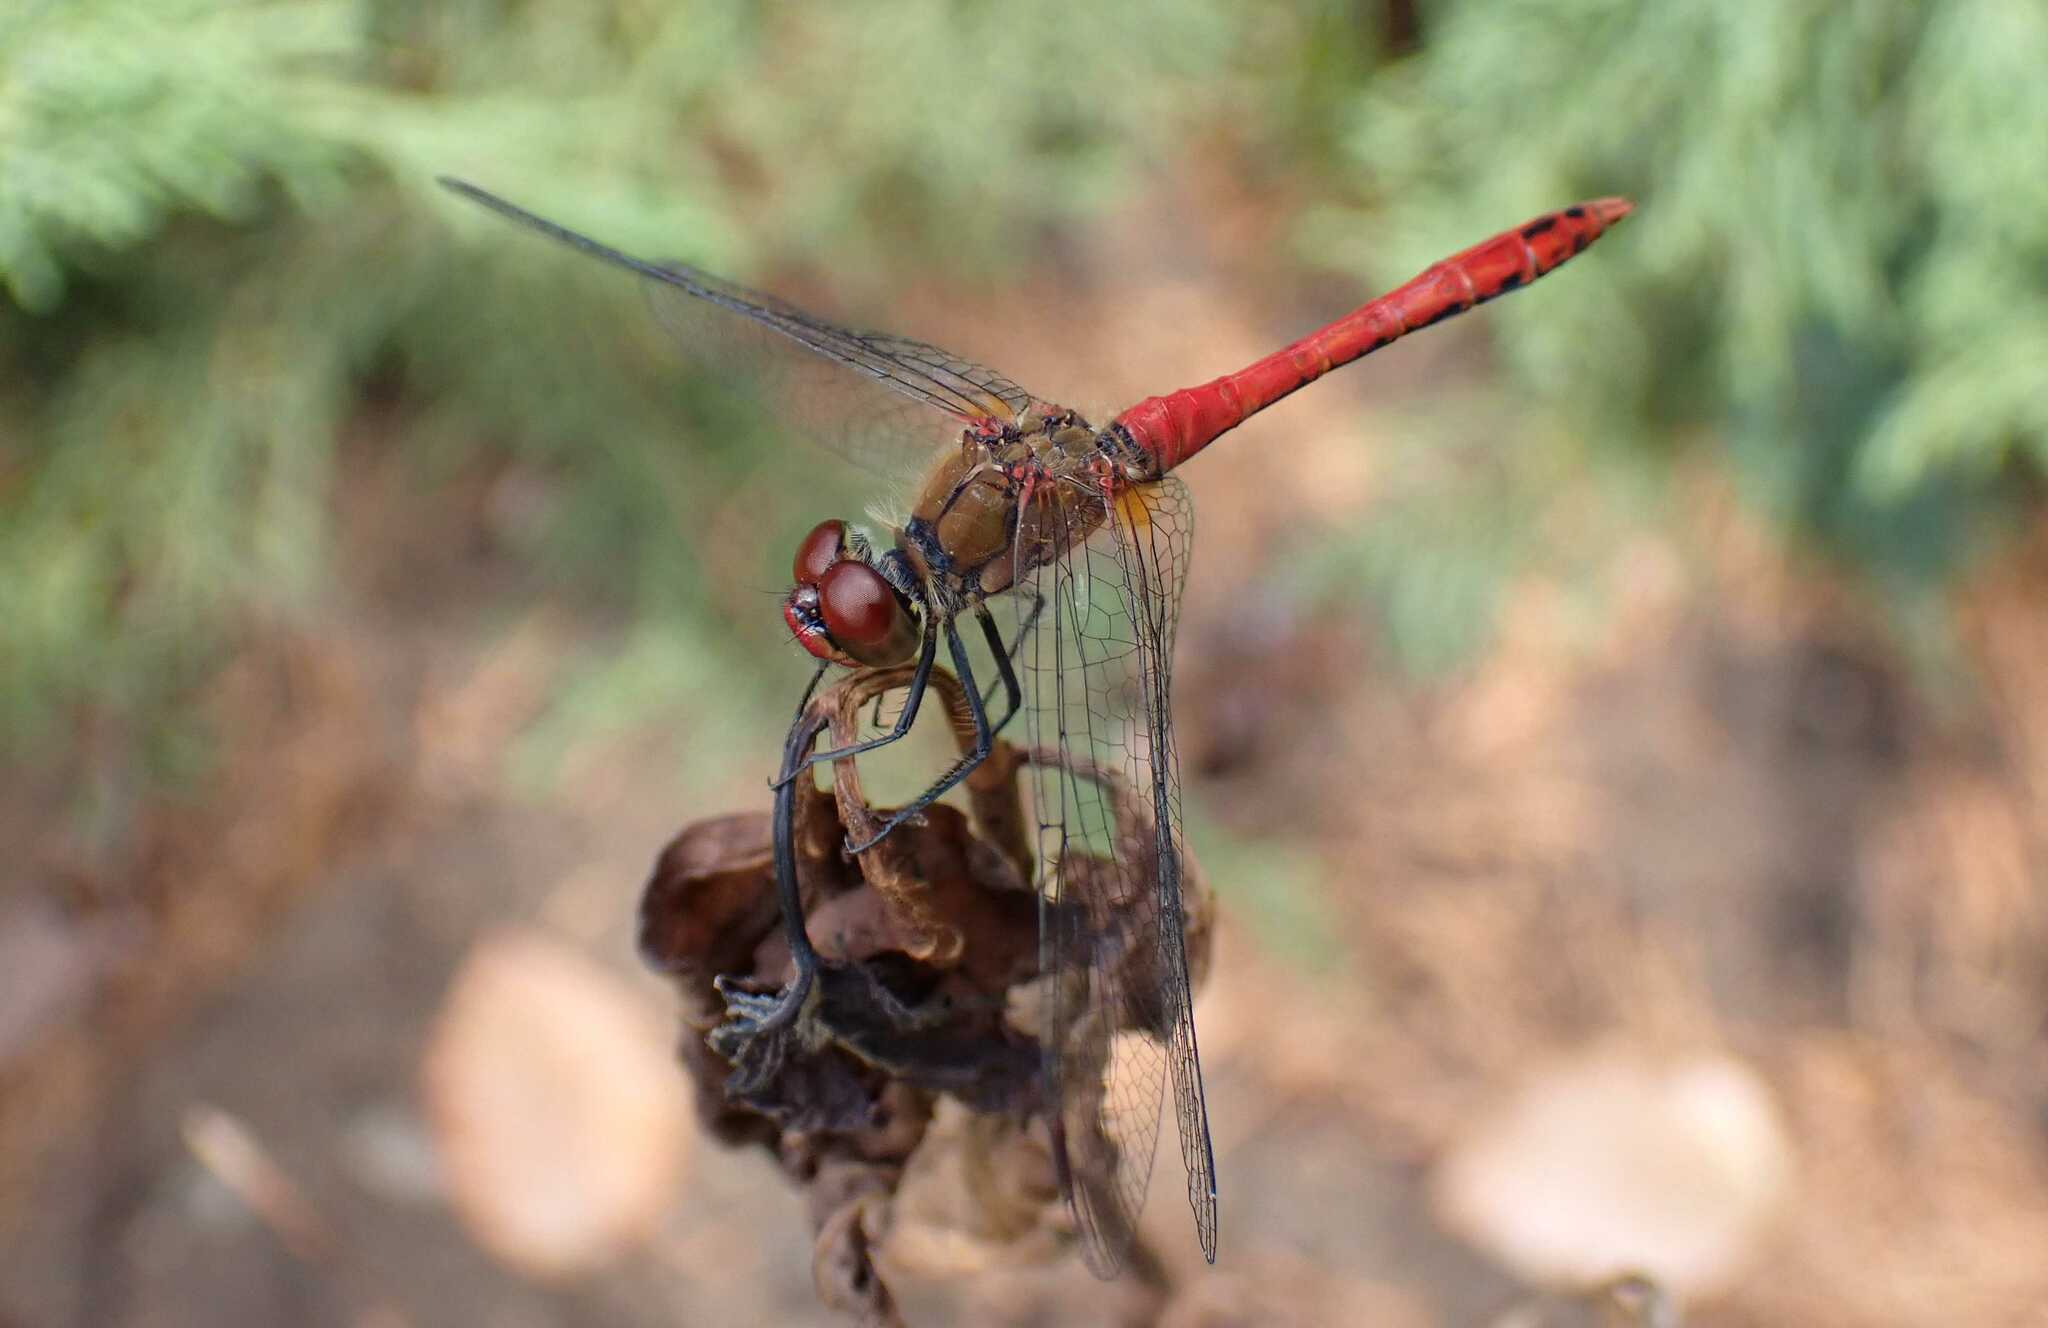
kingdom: Animalia
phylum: Arthropoda
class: Insecta
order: Odonata
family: Libellulidae
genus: Sympetrum
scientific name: Sympetrum sanguineum
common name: Ruddy darter
